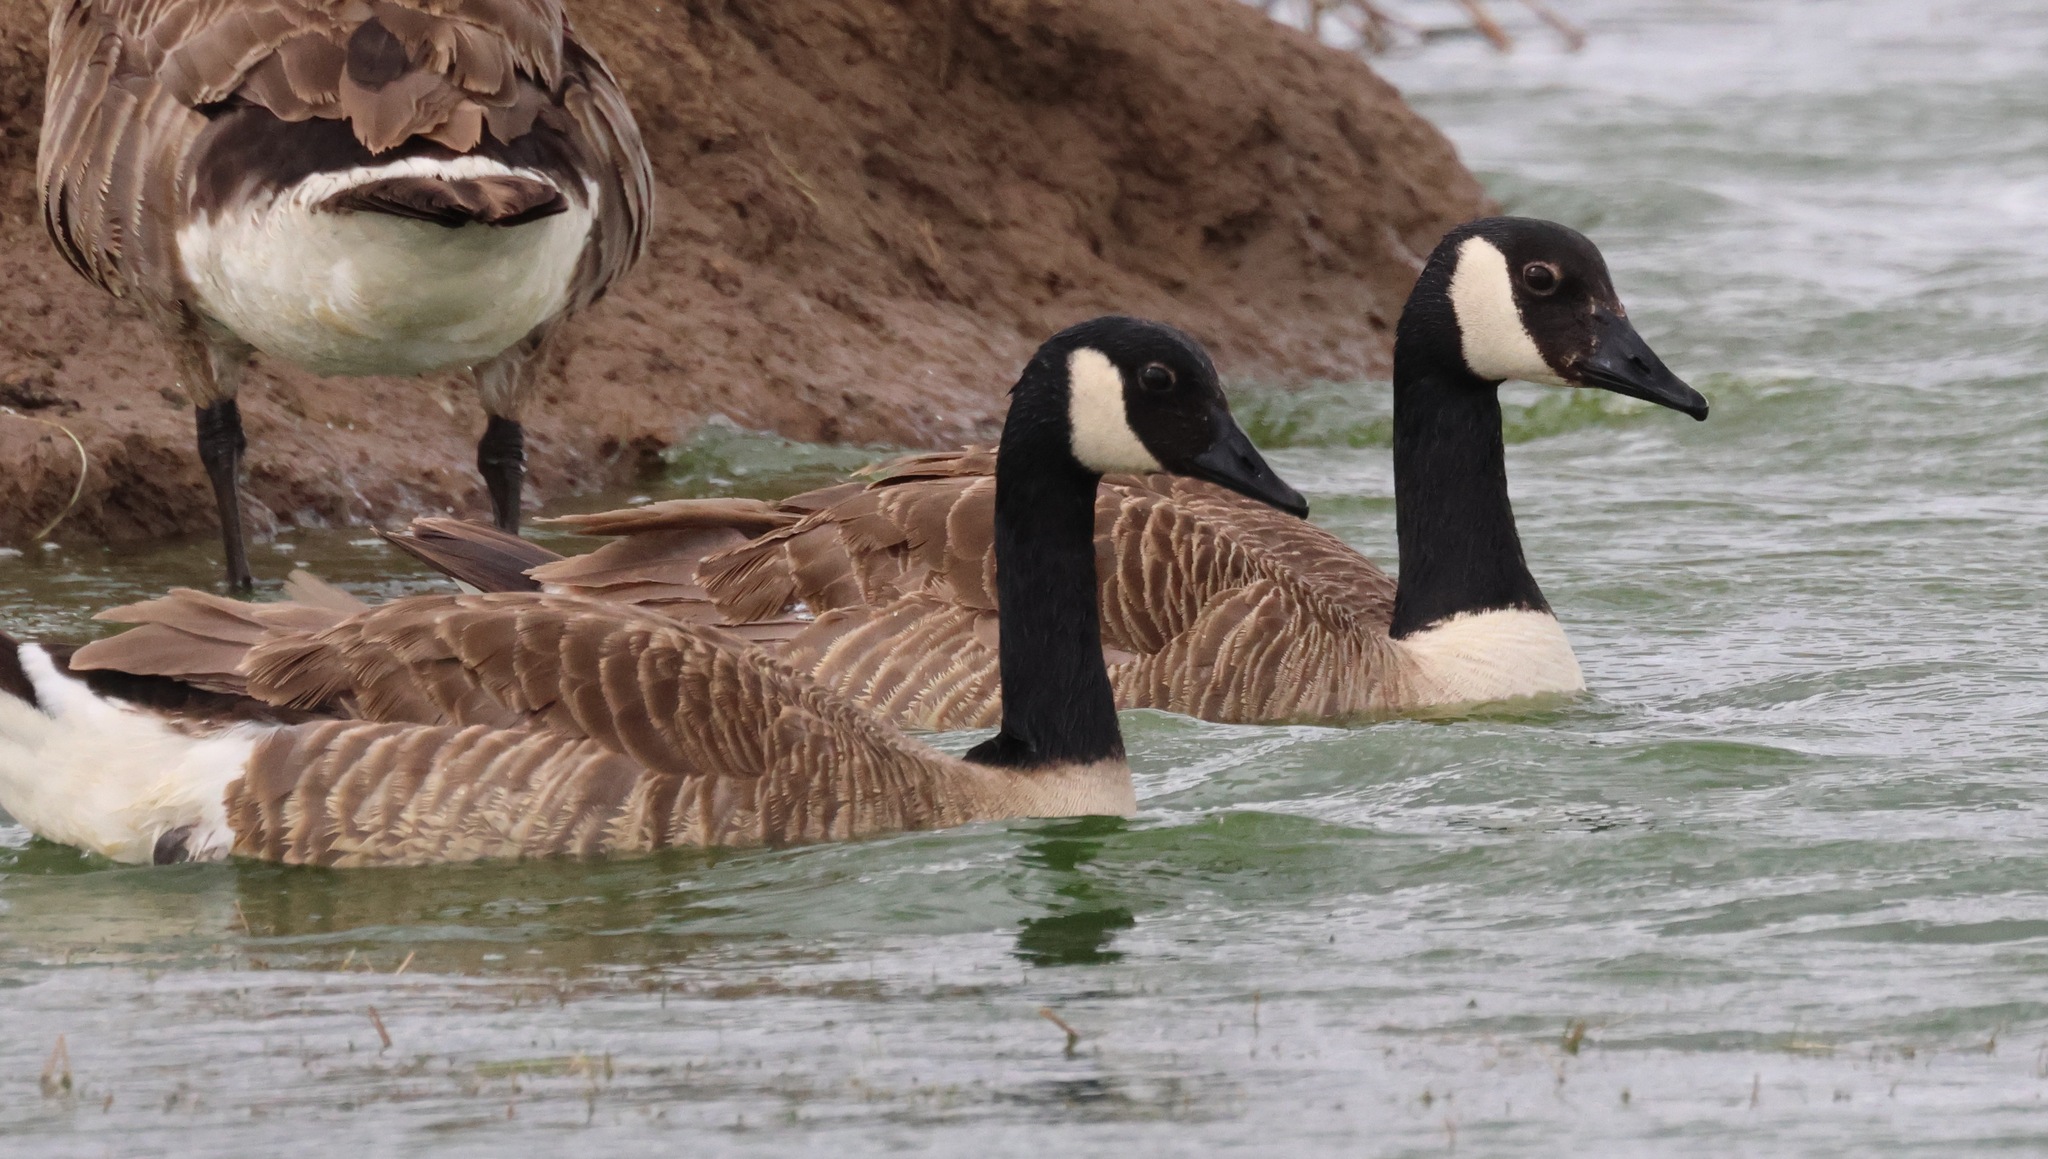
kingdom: Animalia
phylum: Chordata
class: Aves
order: Anseriformes
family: Anatidae
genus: Branta
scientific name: Branta canadensis
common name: Canada goose
